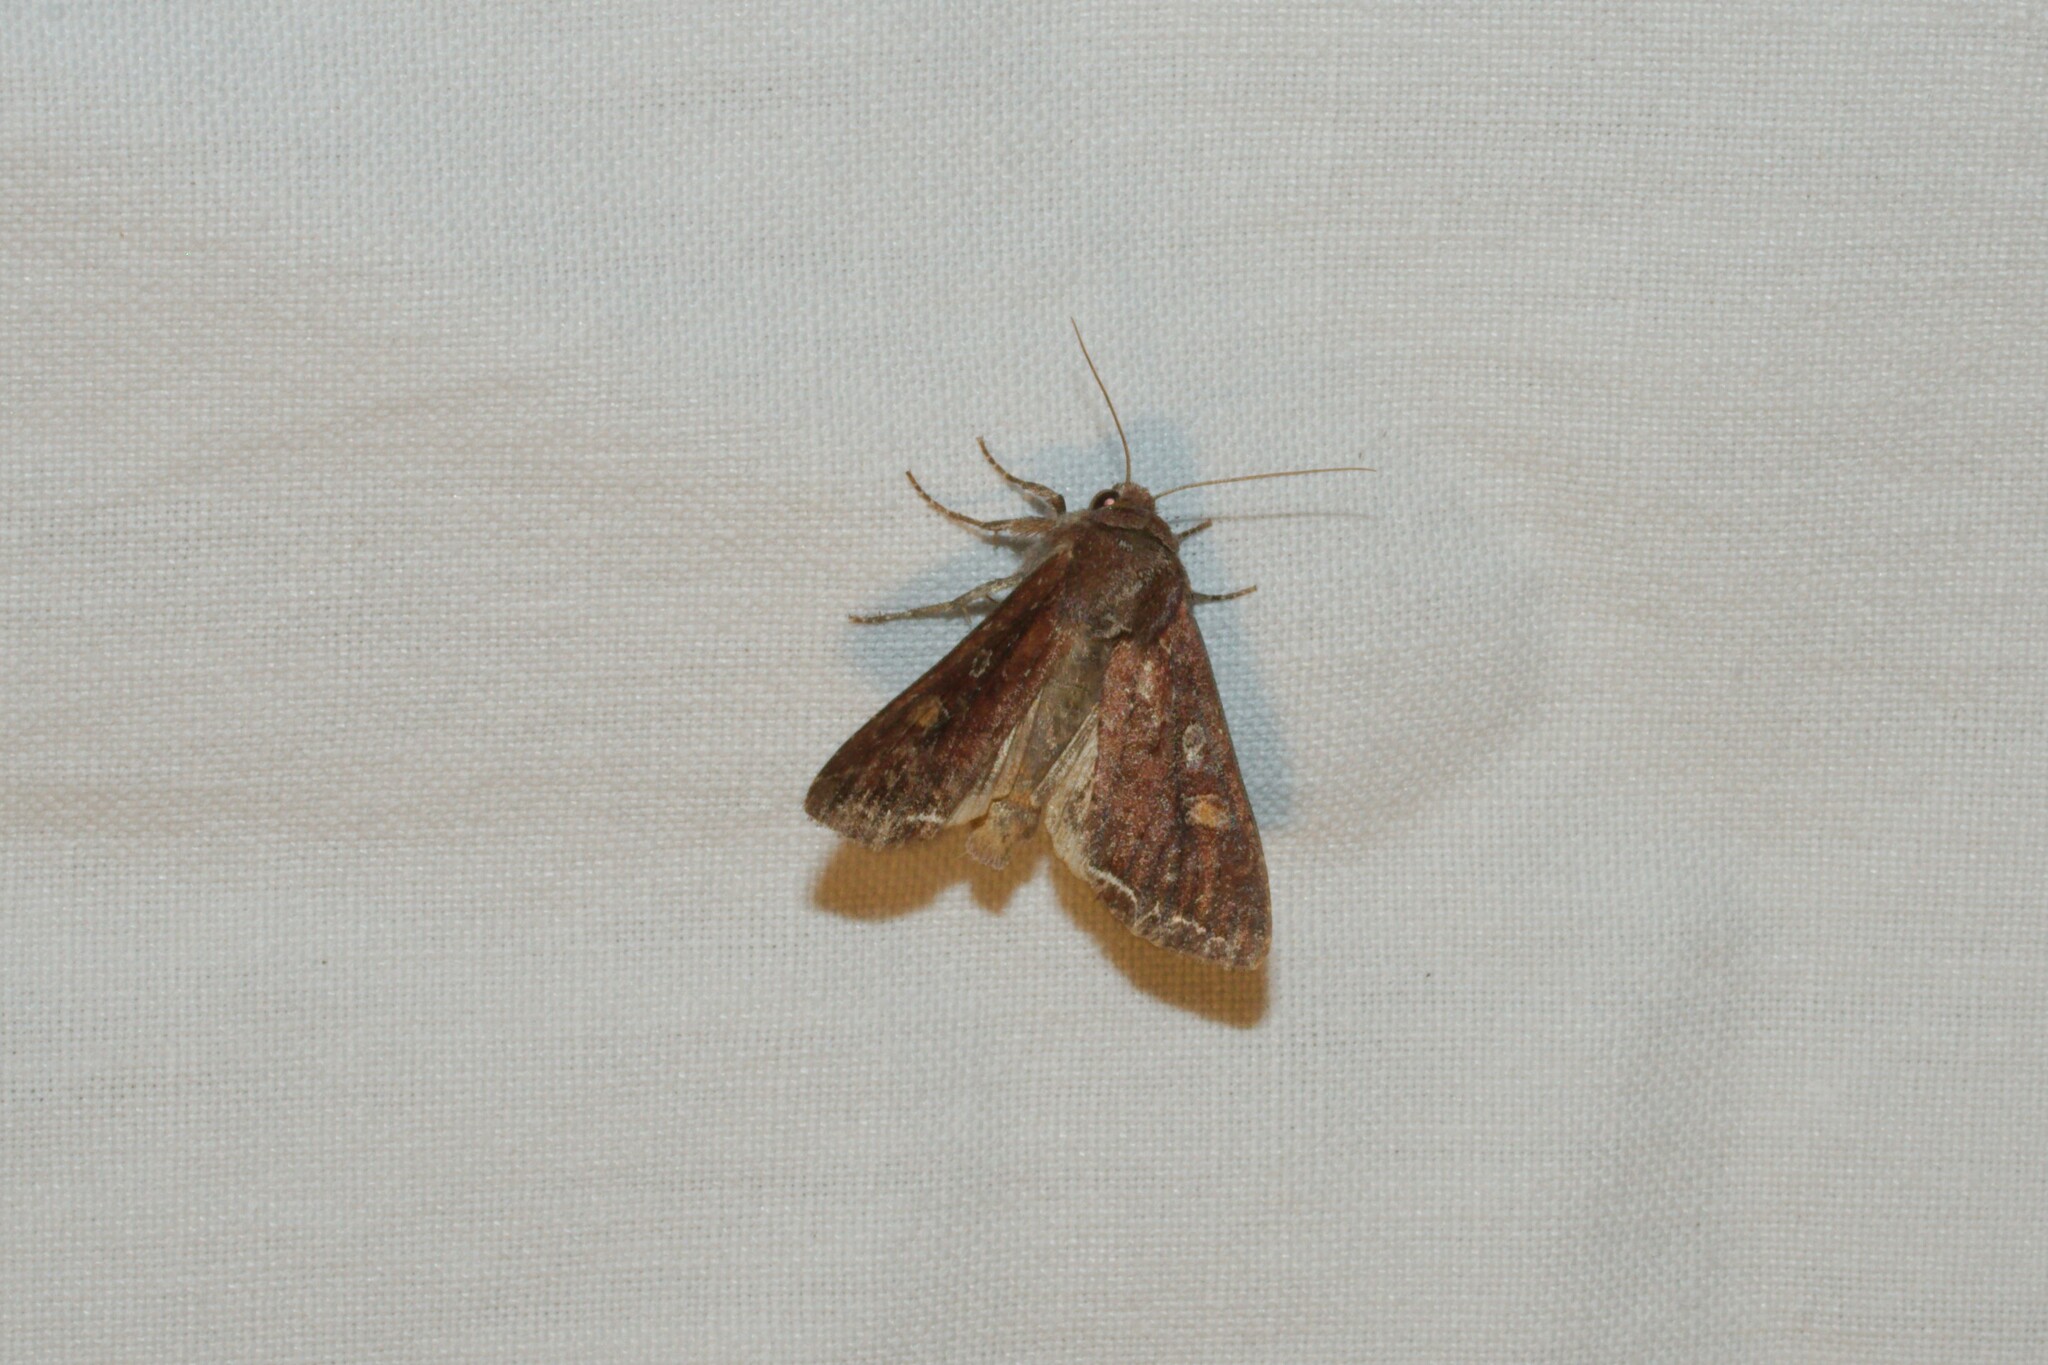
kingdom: Animalia
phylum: Arthropoda
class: Insecta
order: Lepidoptera
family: Noctuidae
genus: Lacanobia
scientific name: Lacanobia oleracea
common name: Bright-line brown-eye
